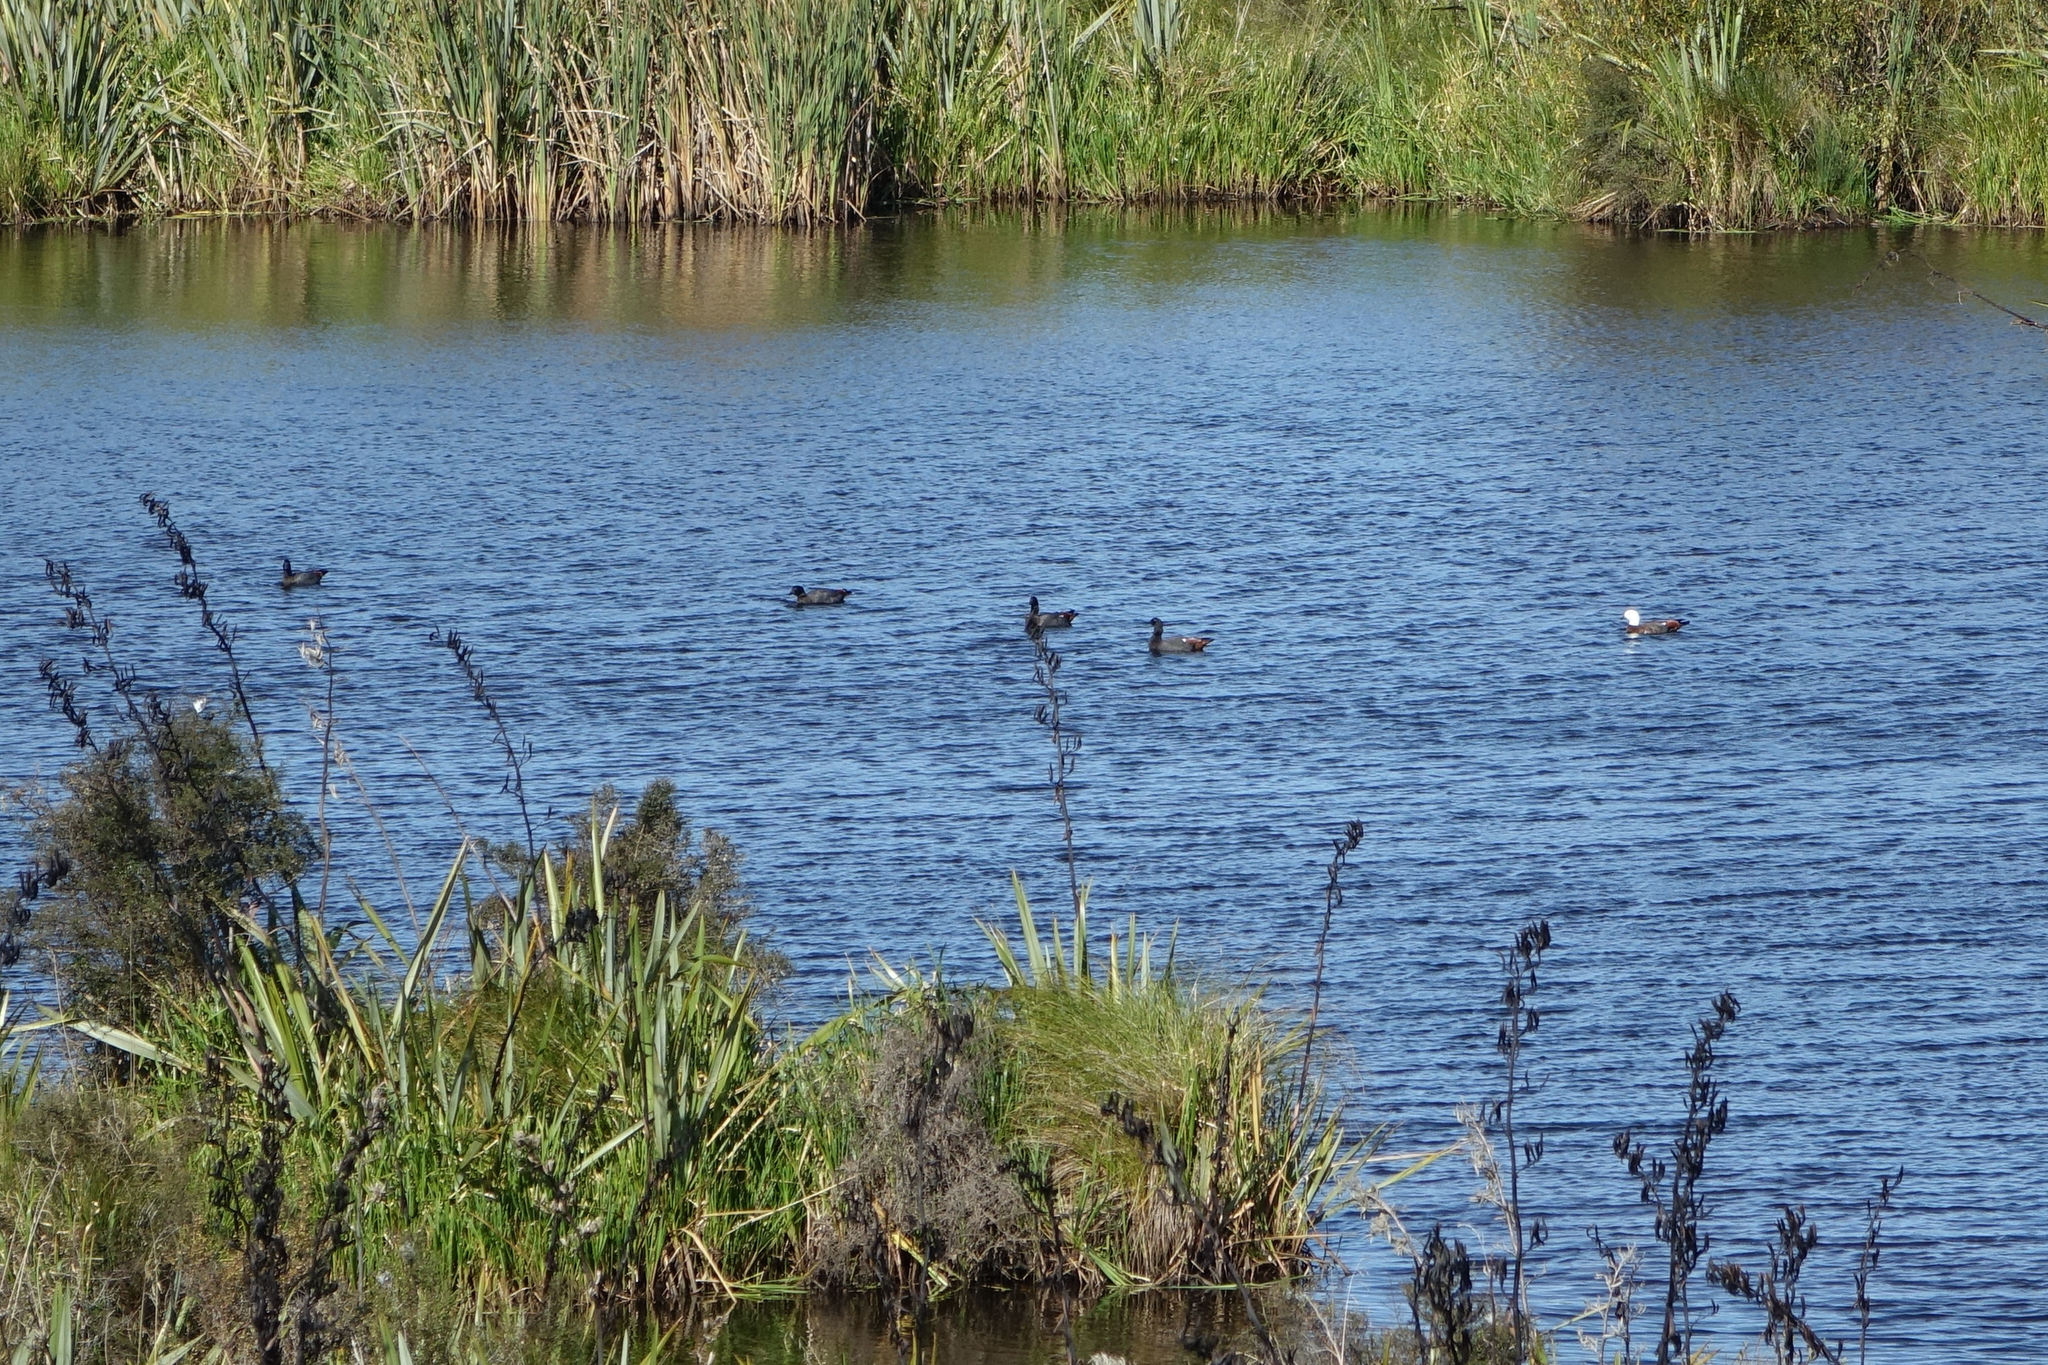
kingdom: Animalia
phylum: Chordata
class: Aves
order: Anseriformes
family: Anatidae
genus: Tadorna
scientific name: Tadorna variegata
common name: Paradise shelduck
